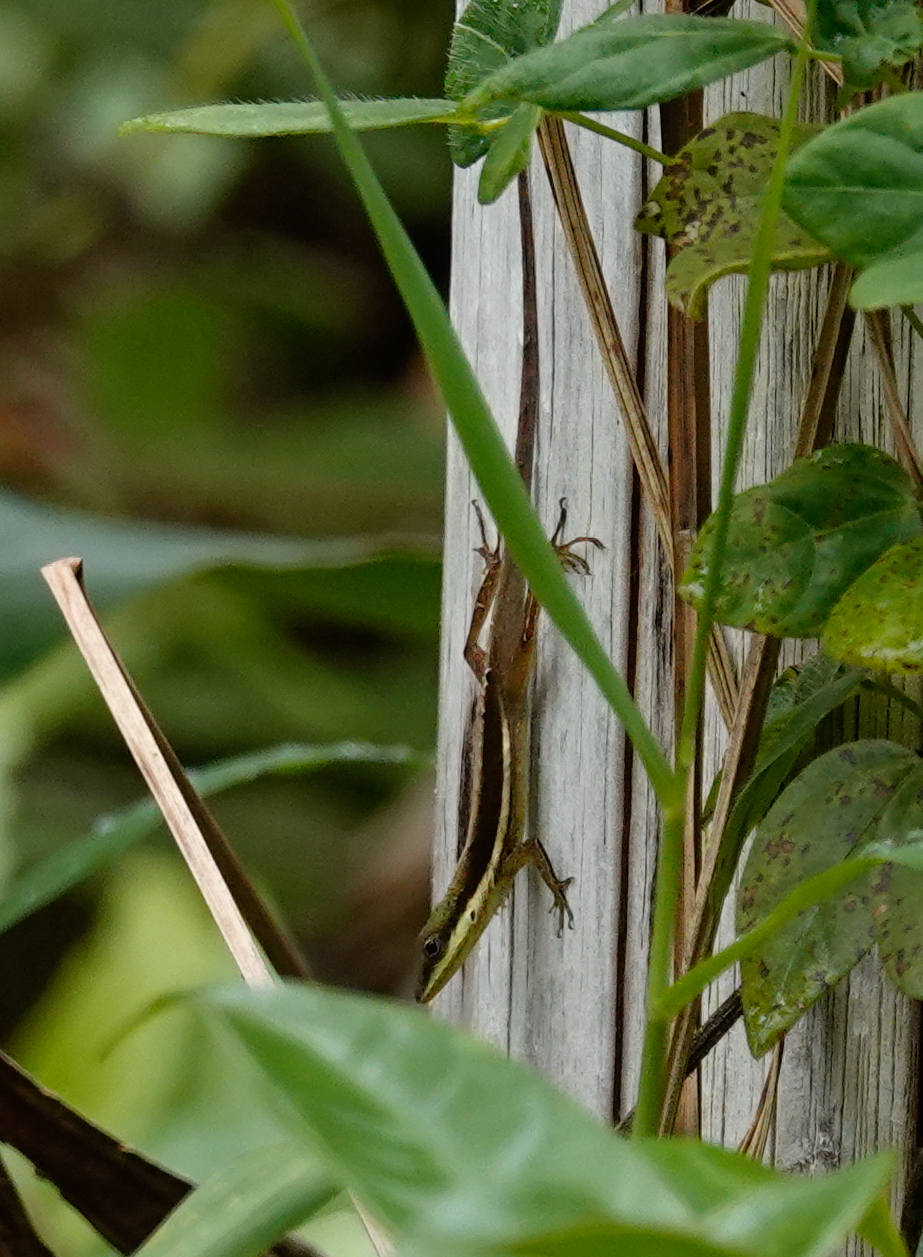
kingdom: Animalia
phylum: Chordata
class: Squamata
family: Dactyloidae
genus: Anolis
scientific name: Anolis krugi
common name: Krug's anole
